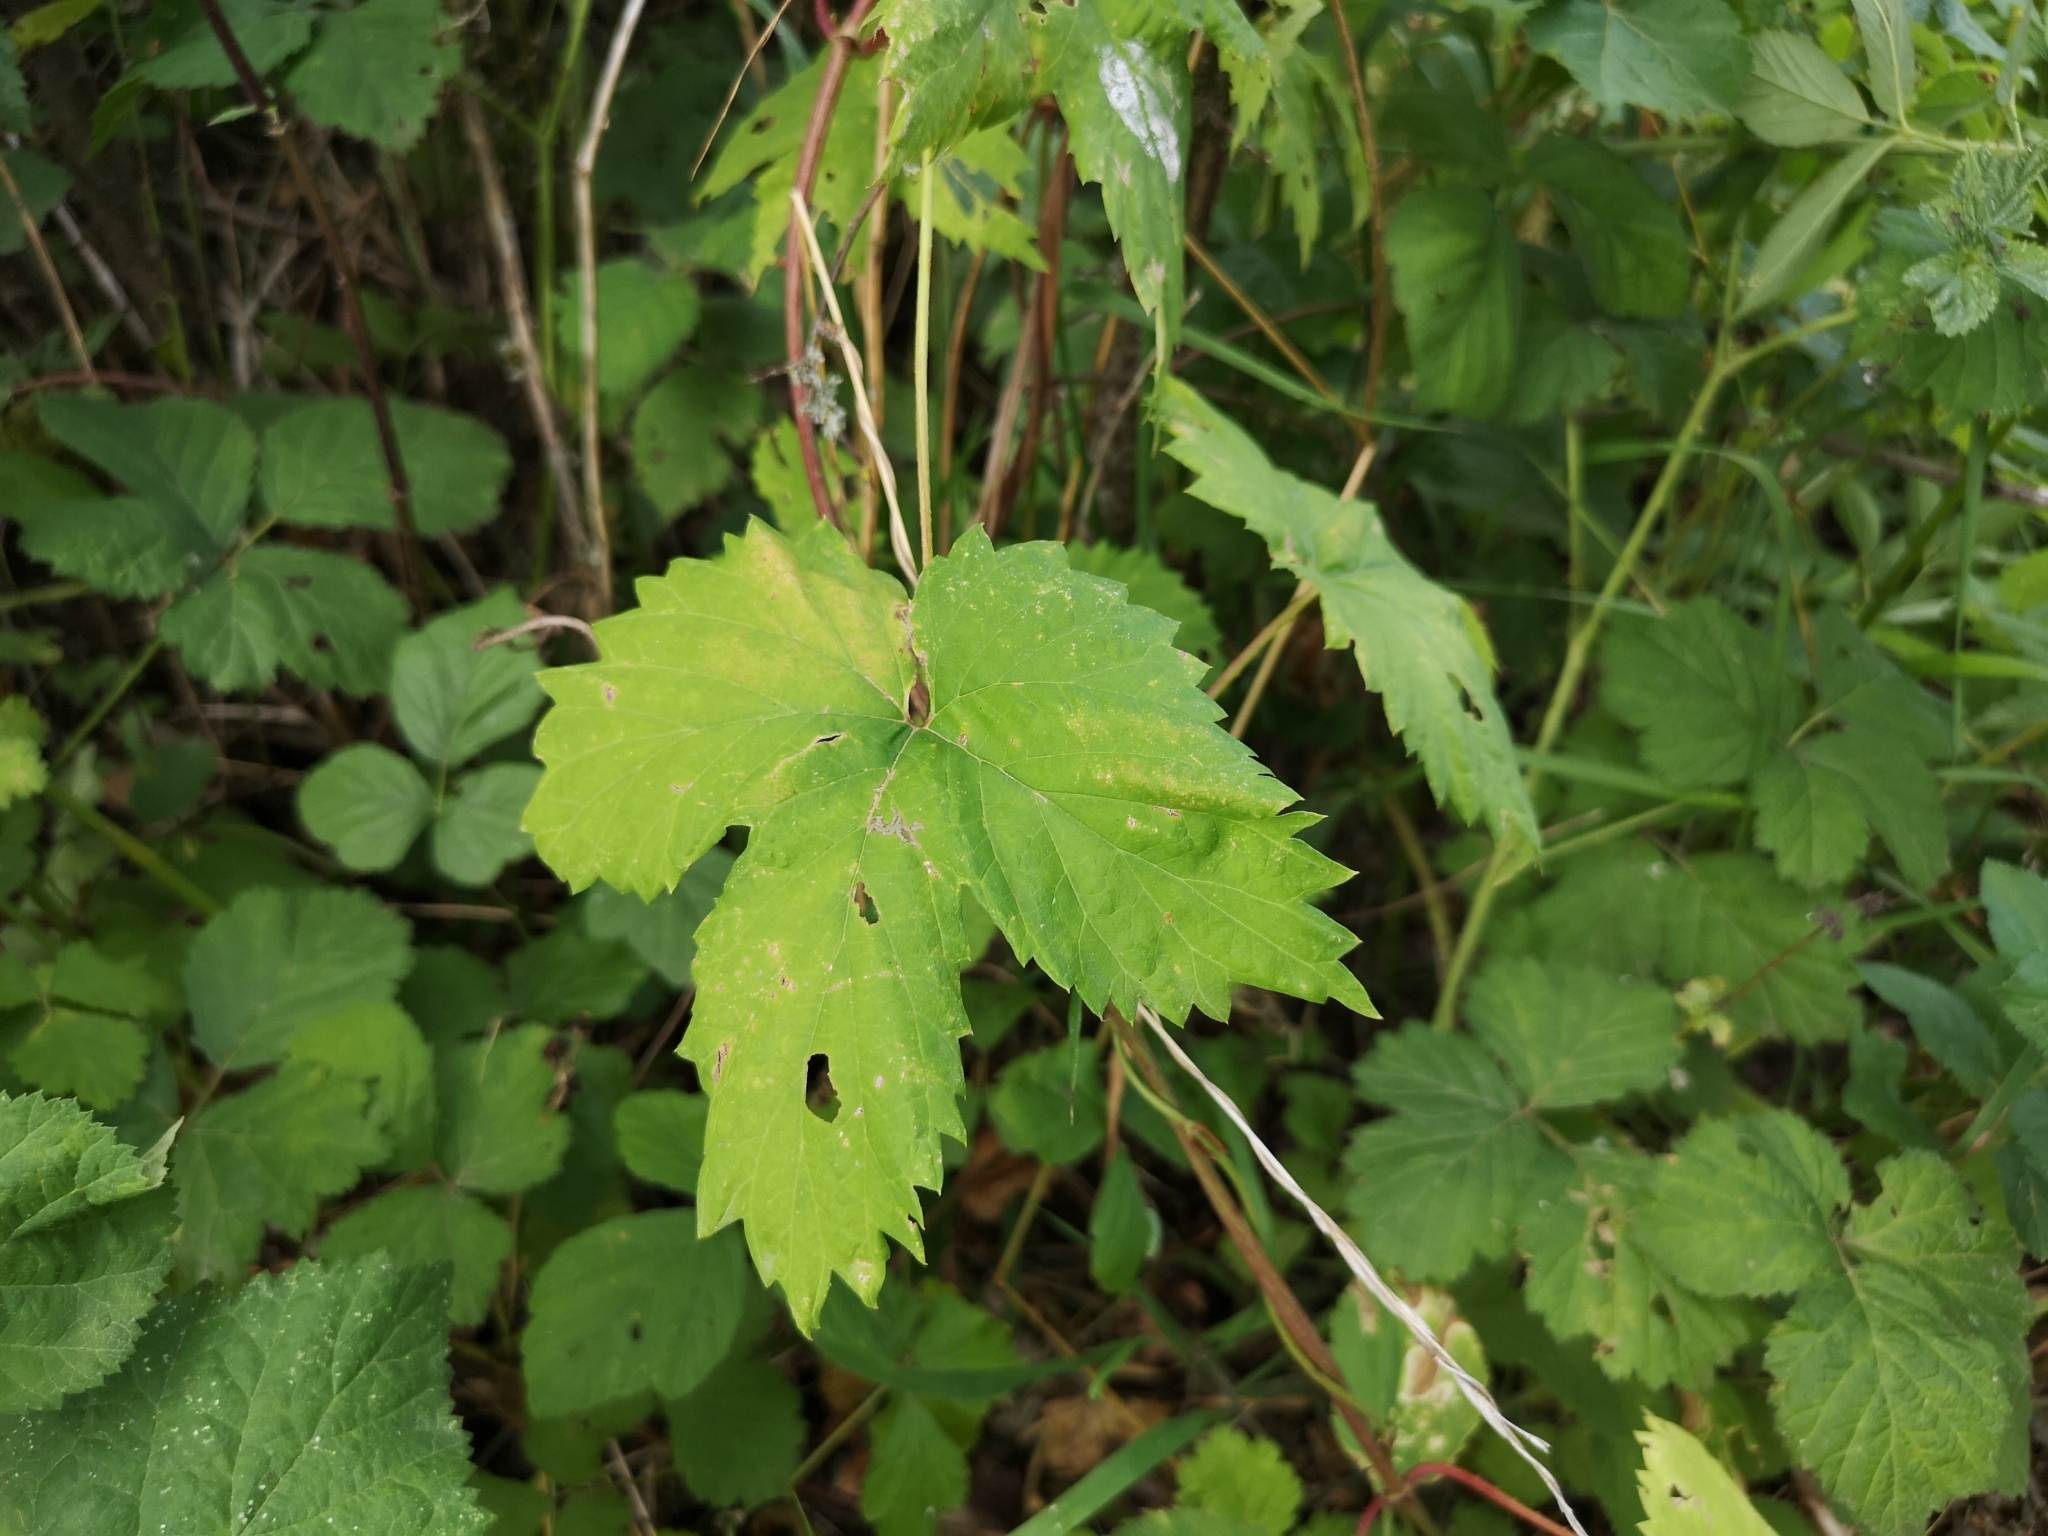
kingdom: Plantae
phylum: Tracheophyta
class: Magnoliopsida
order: Rosales
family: Cannabaceae
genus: Humulus
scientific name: Humulus lupulus
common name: Hop
